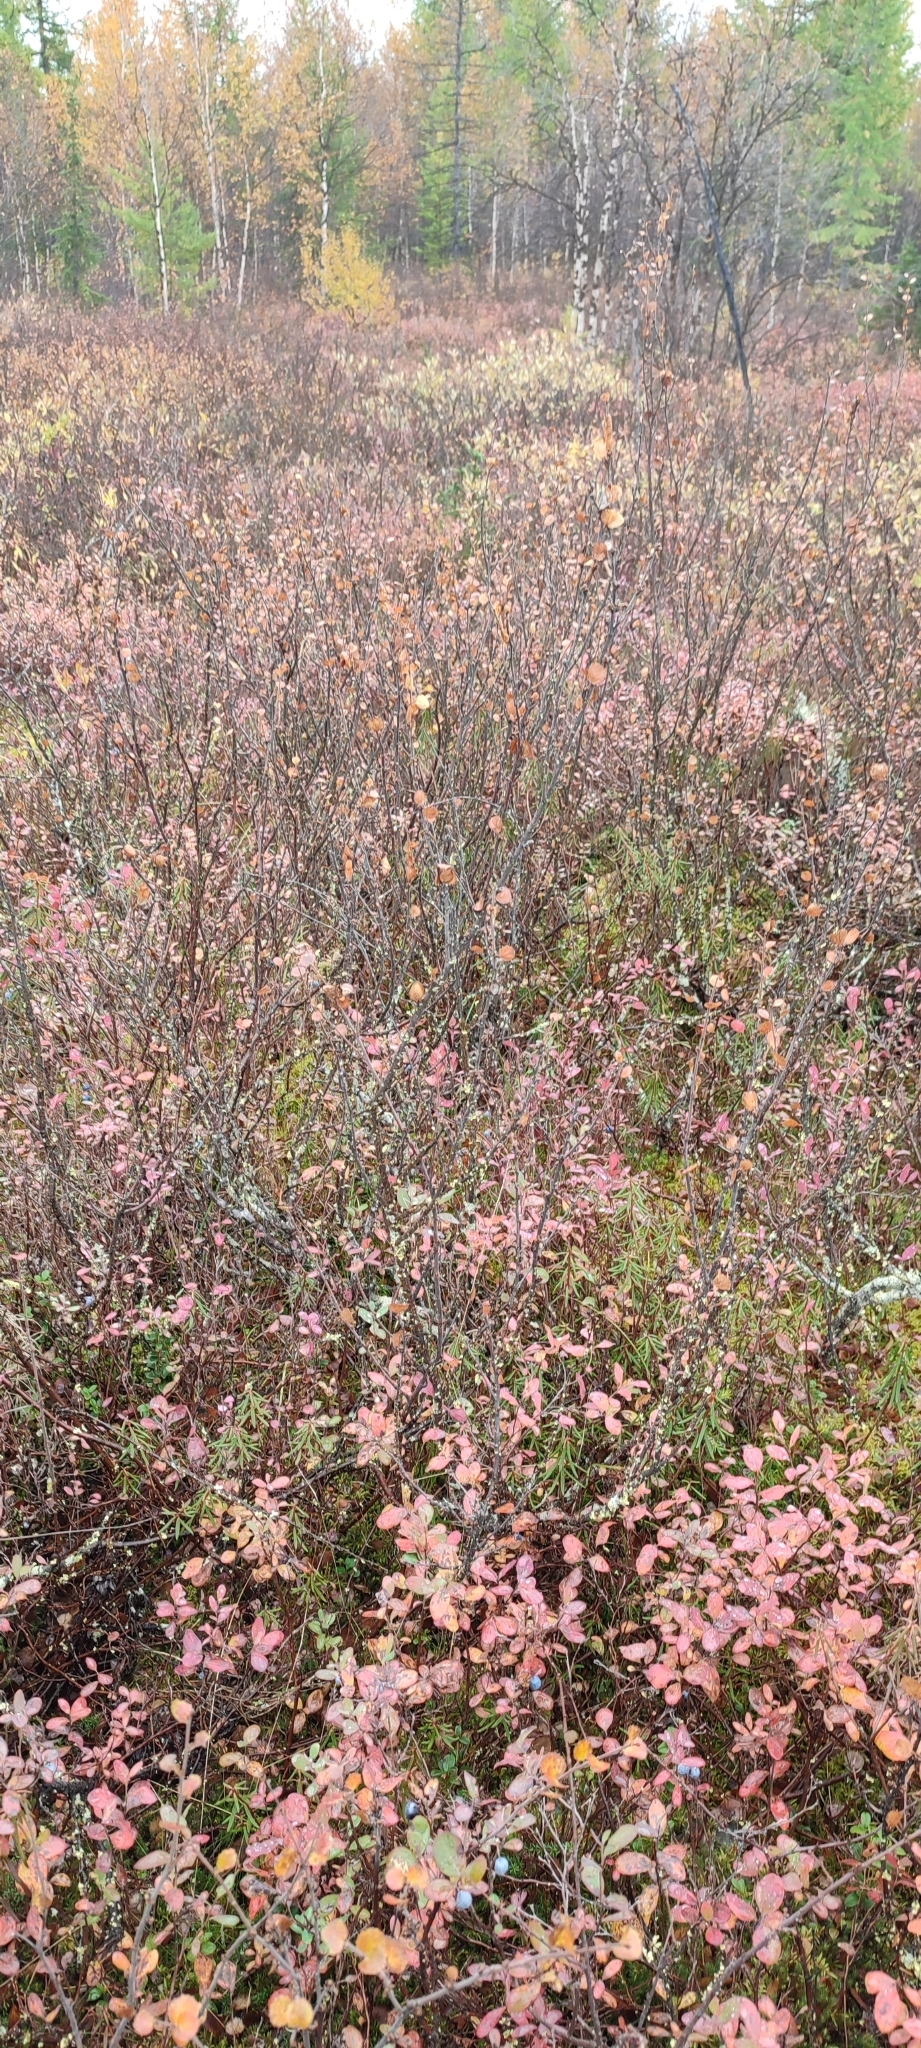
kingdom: Plantae
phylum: Tracheophyta
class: Magnoliopsida
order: Fagales
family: Betulaceae
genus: Betula
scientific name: Betula nana
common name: Arctic dwarf birch
